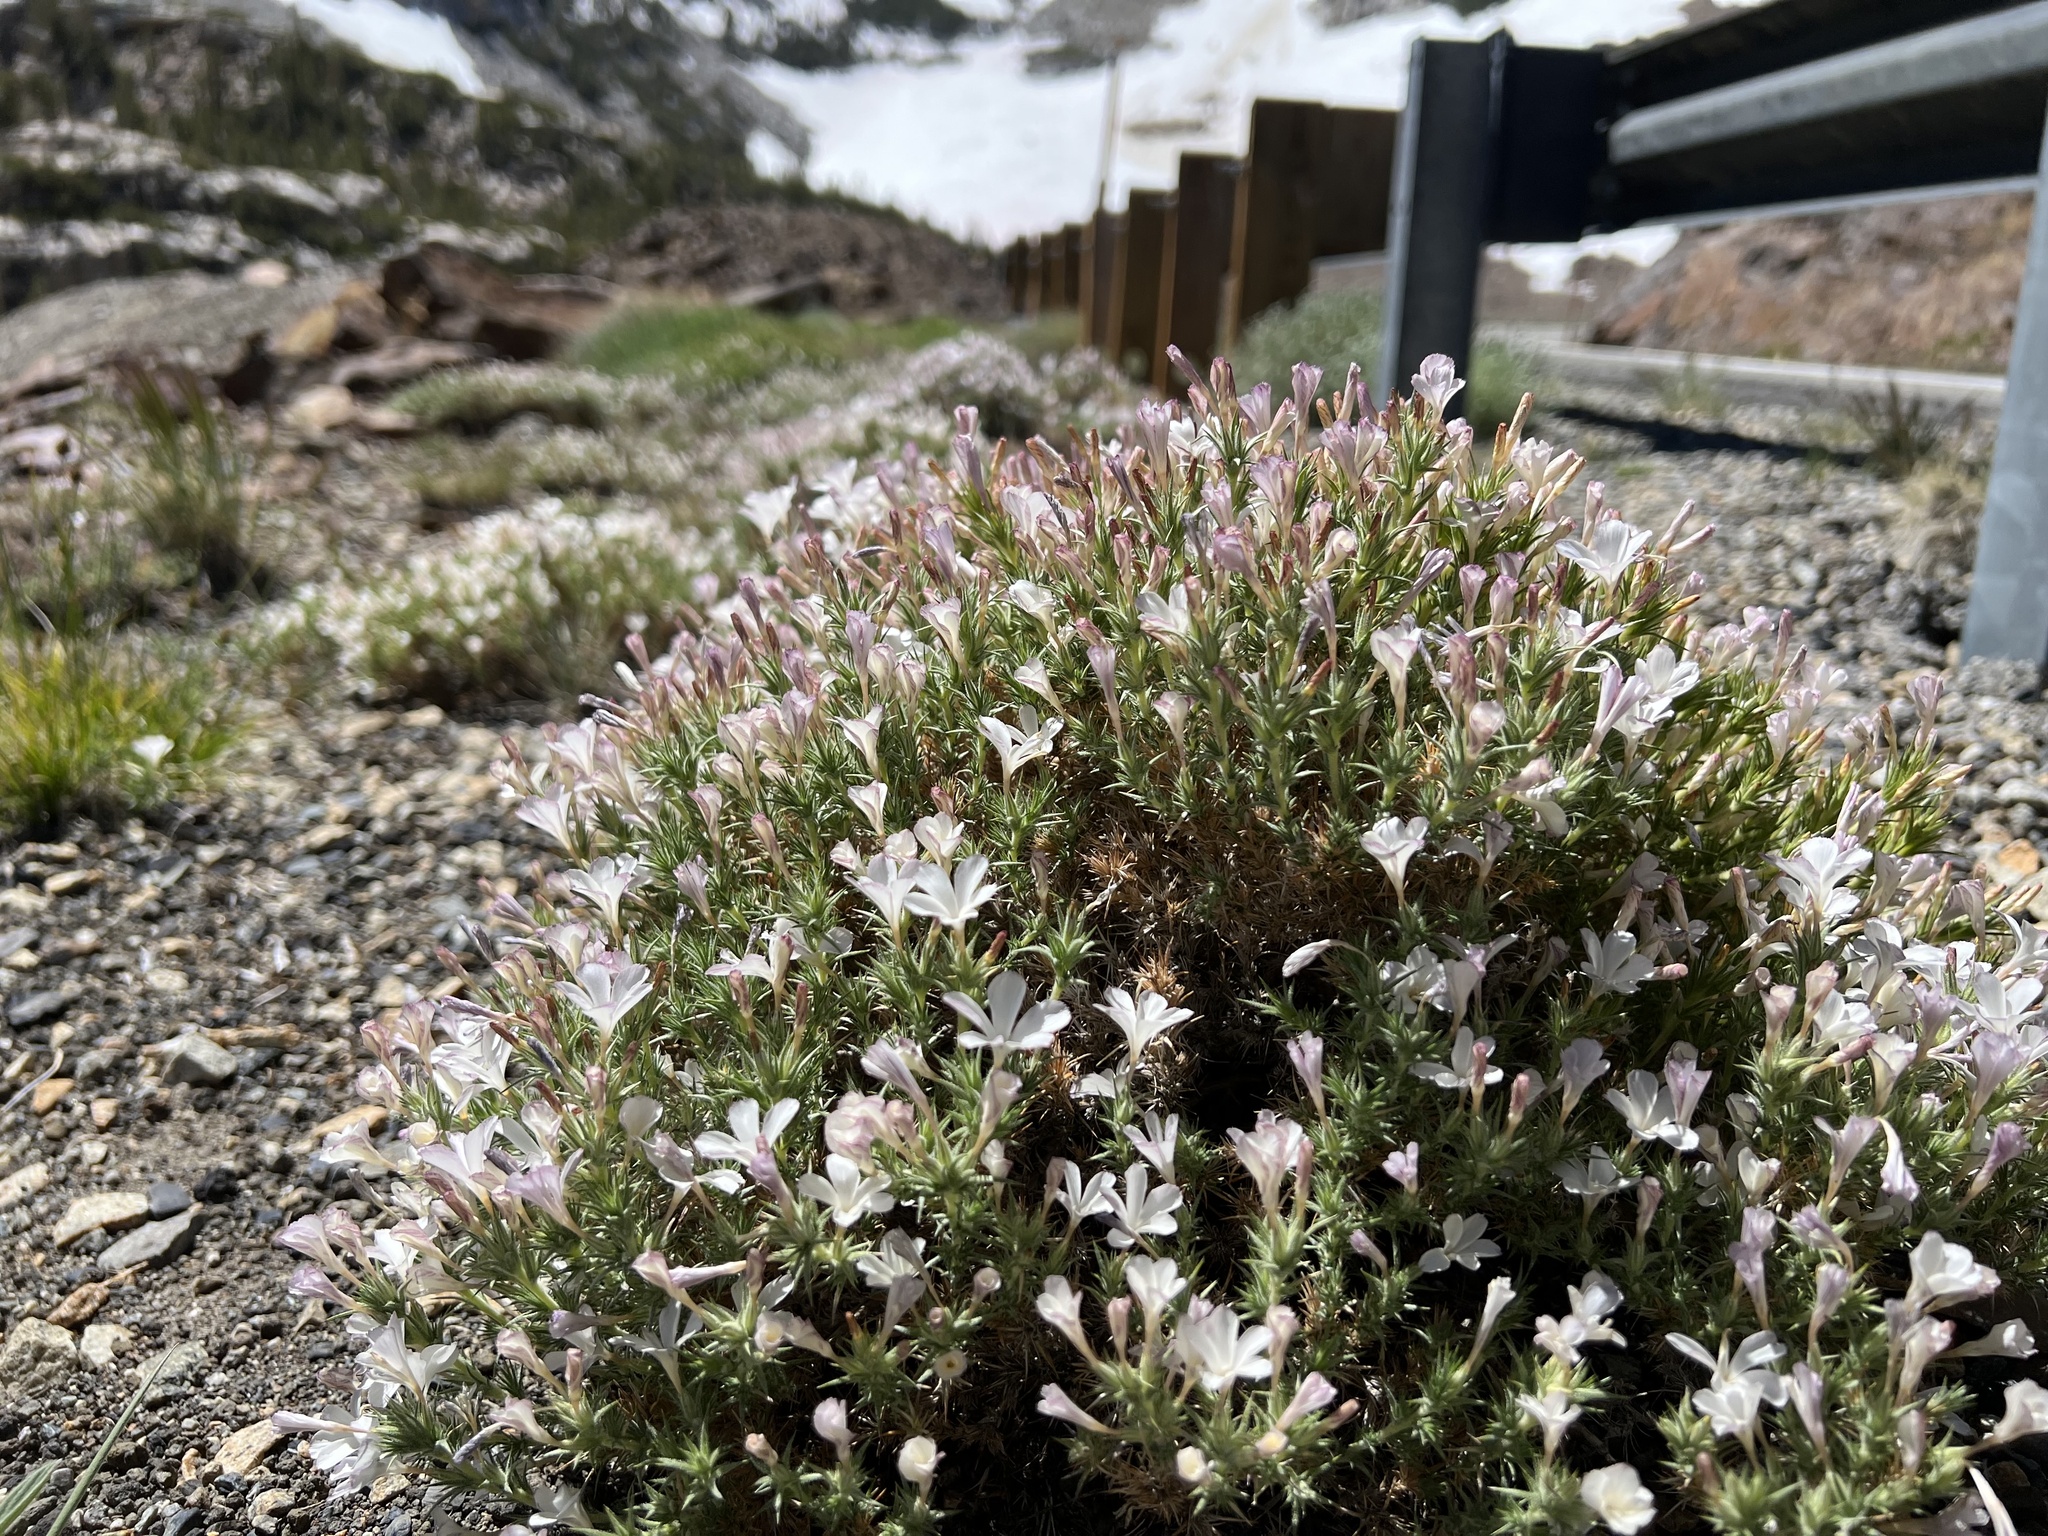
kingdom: Plantae
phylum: Tracheophyta
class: Magnoliopsida
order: Ericales
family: Polemoniaceae
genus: Linanthus
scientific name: Linanthus pungens
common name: Granite prickly phlox
